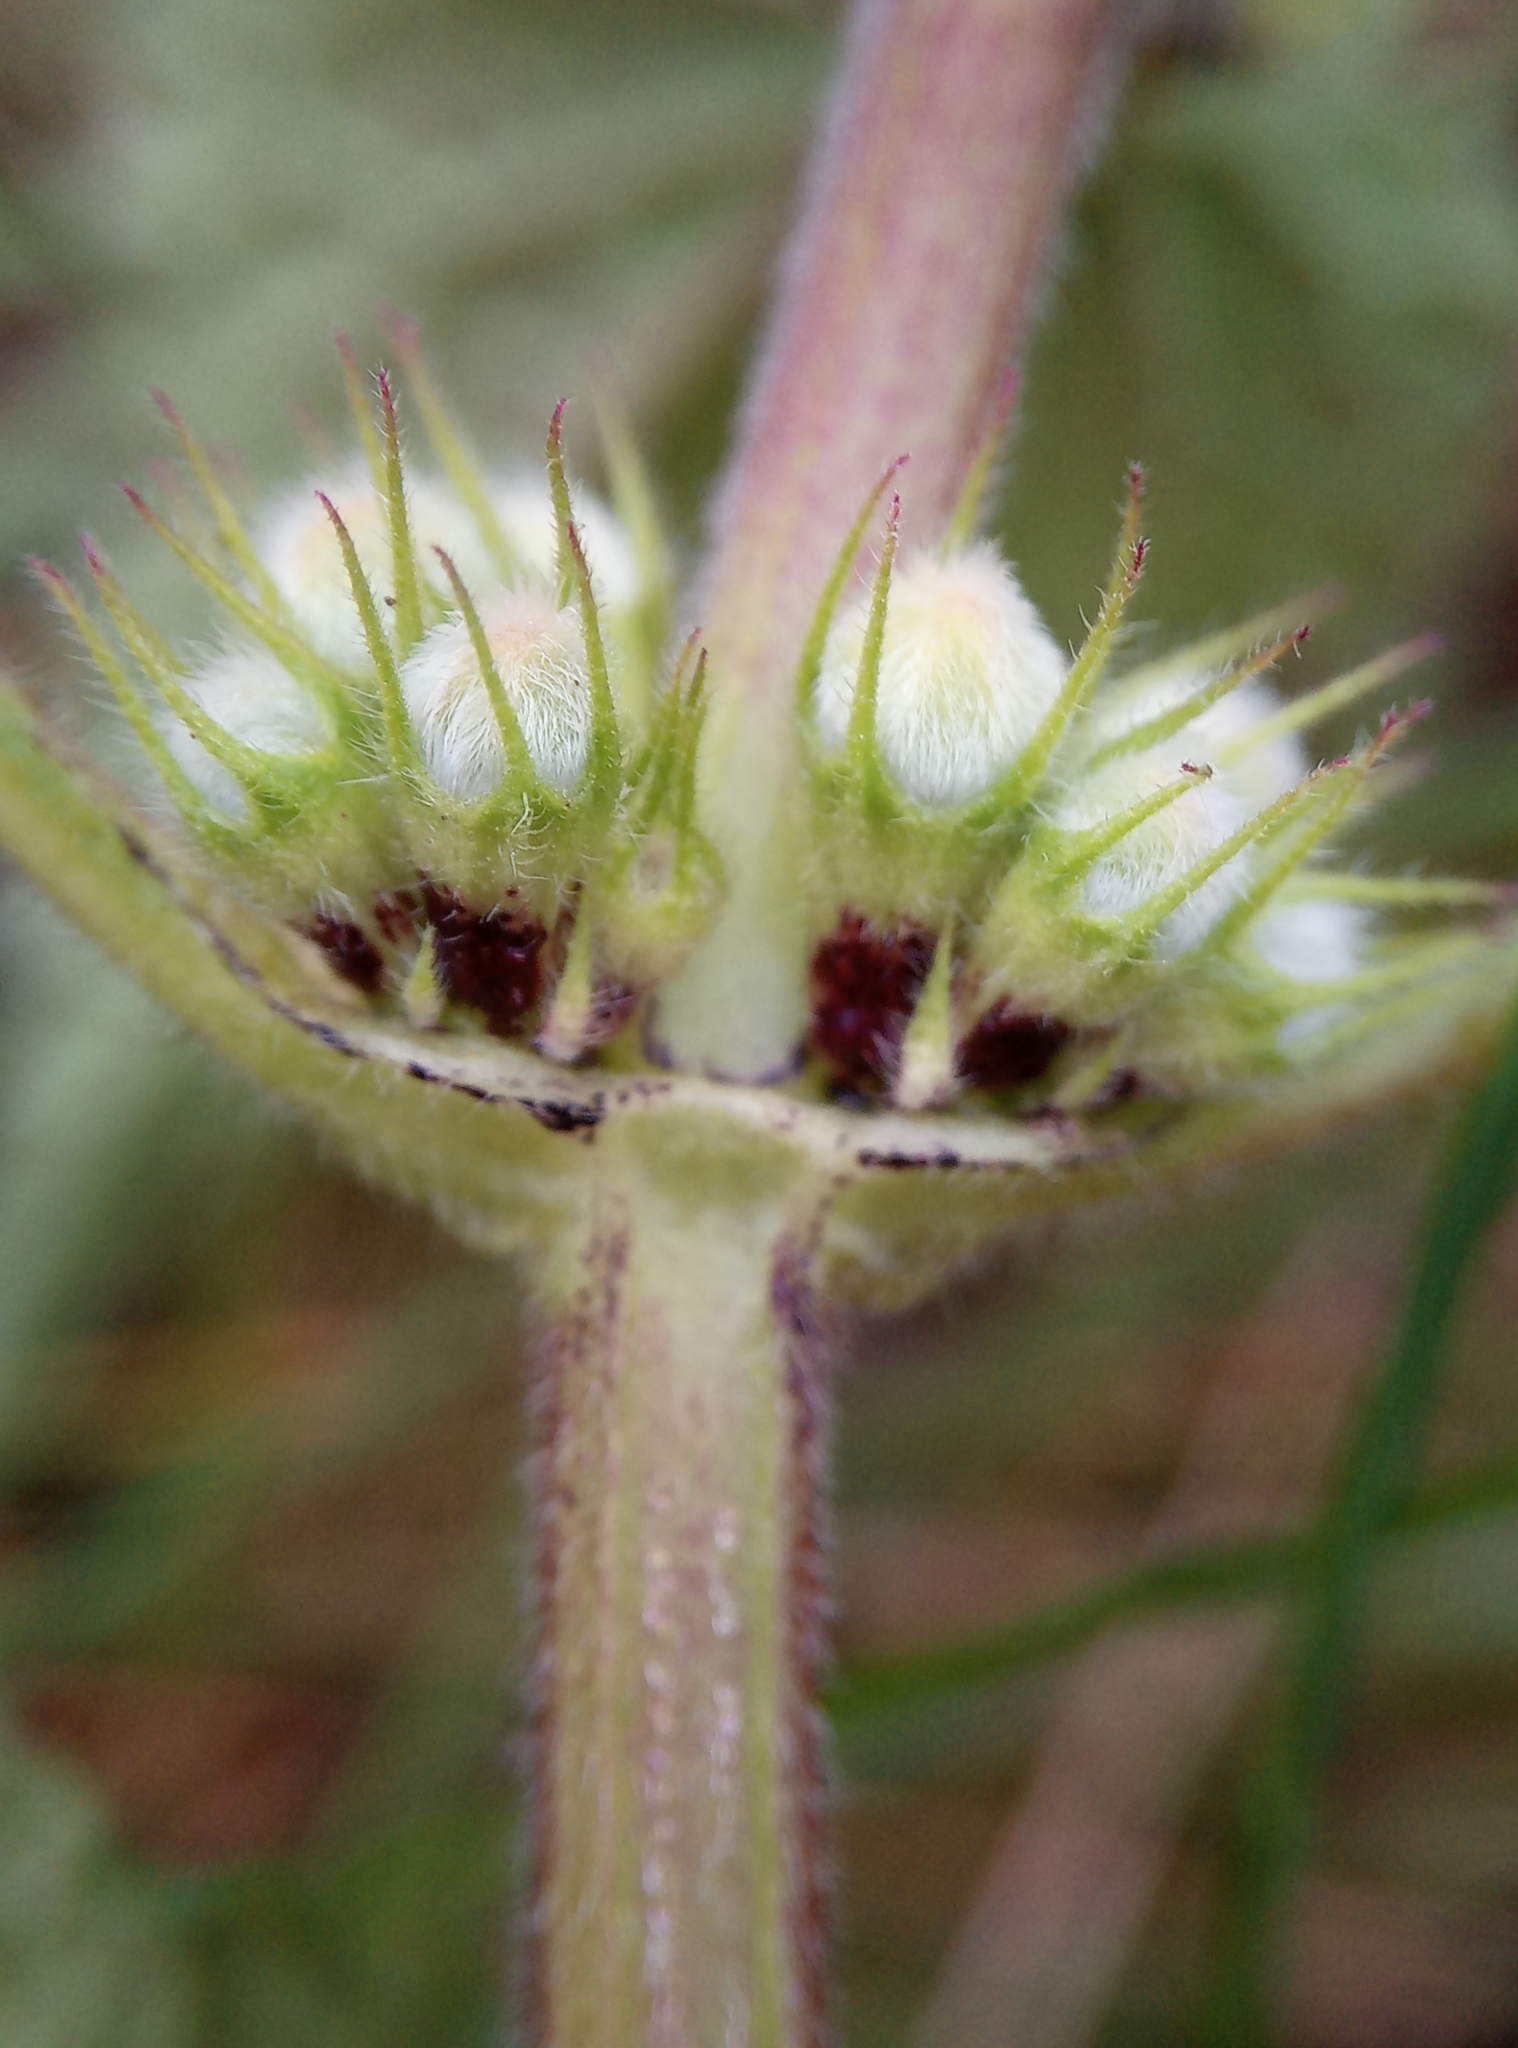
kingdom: Plantae
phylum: Tracheophyta
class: Magnoliopsida
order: Lamiales
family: Lamiaceae
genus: Lamium
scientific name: Lamium album
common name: White dead-nettle
